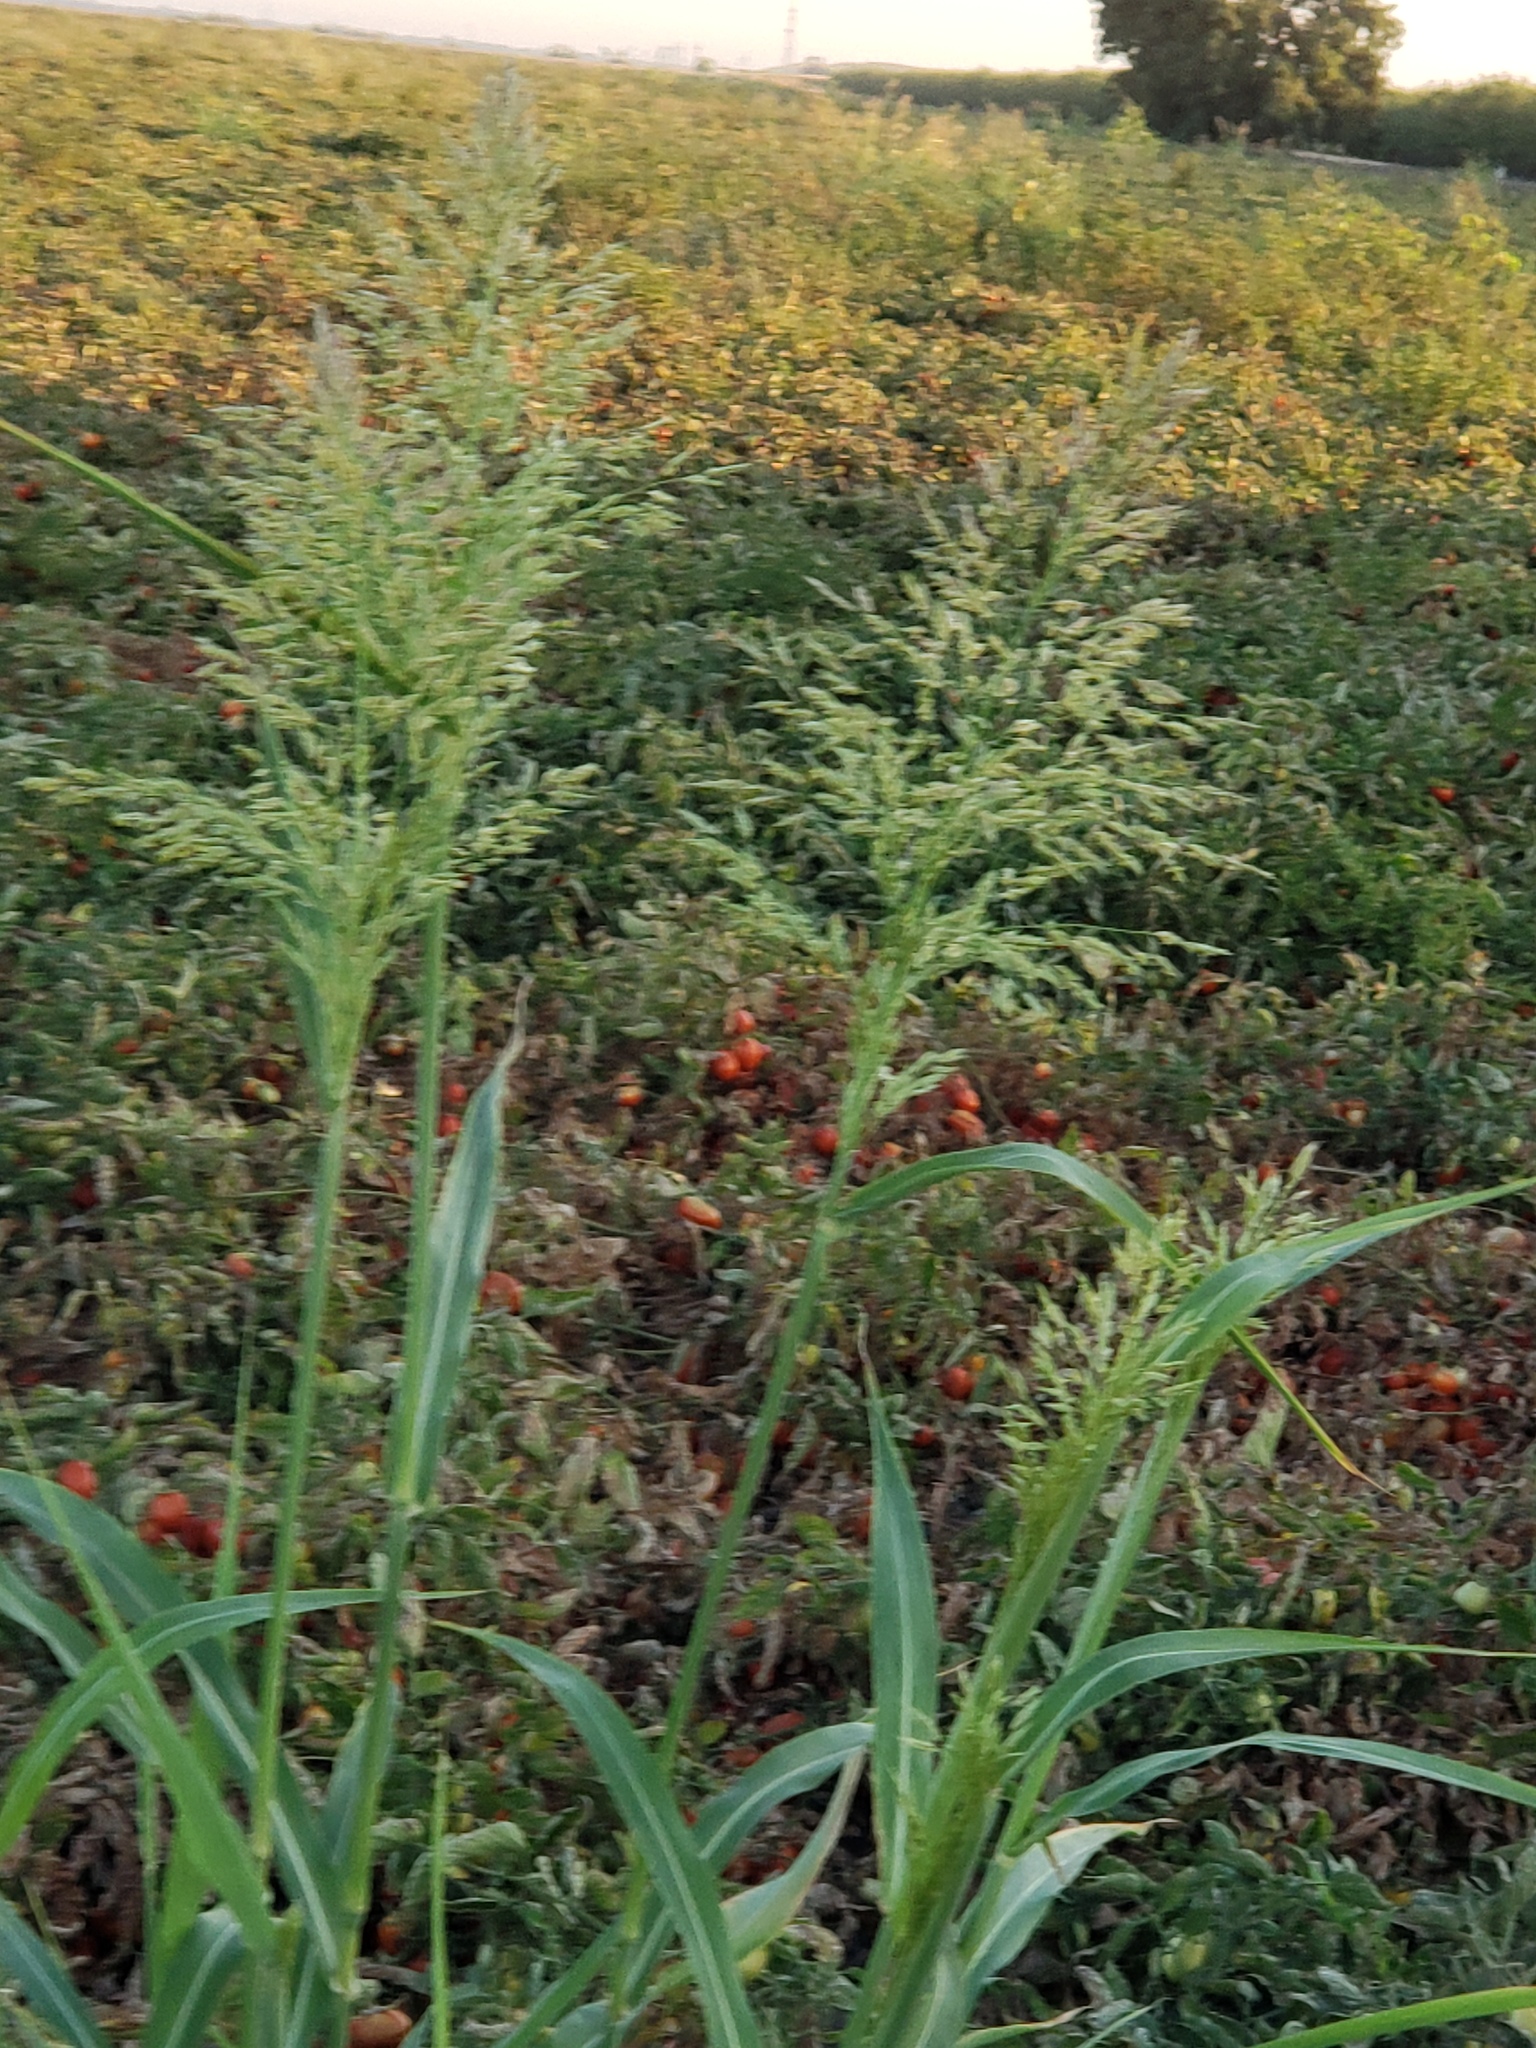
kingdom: Plantae
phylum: Tracheophyta
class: Liliopsida
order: Poales
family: Poaceae
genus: Sorghum
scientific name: Sorghum halepense
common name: Johnson-grass
